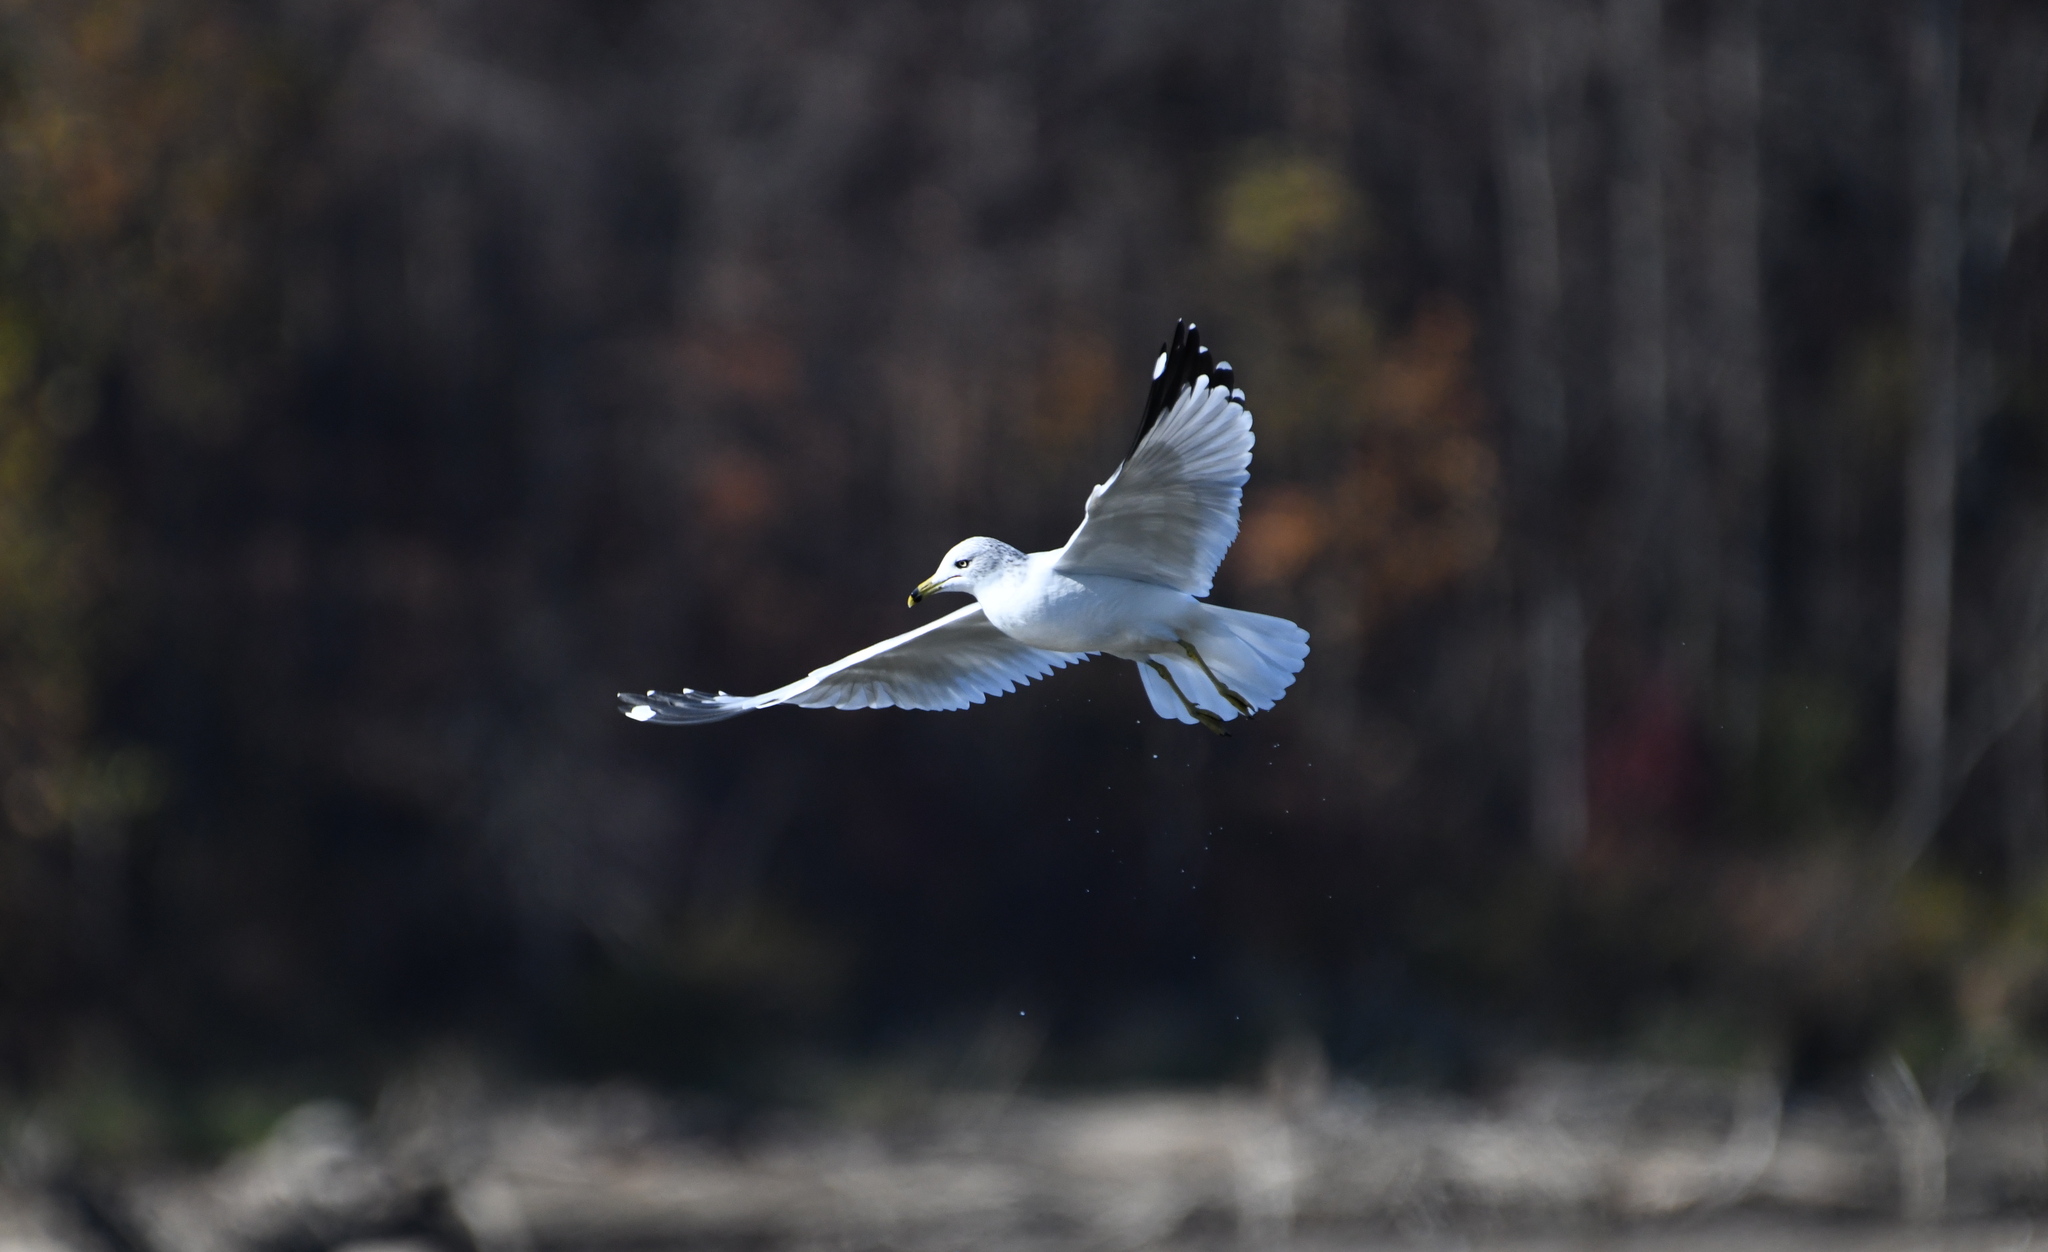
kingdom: Animalia
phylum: Chordata
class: Aves
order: Charadriiformes
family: Laridae
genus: Larus
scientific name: Larus delawarensis
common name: Ring-billed gull
